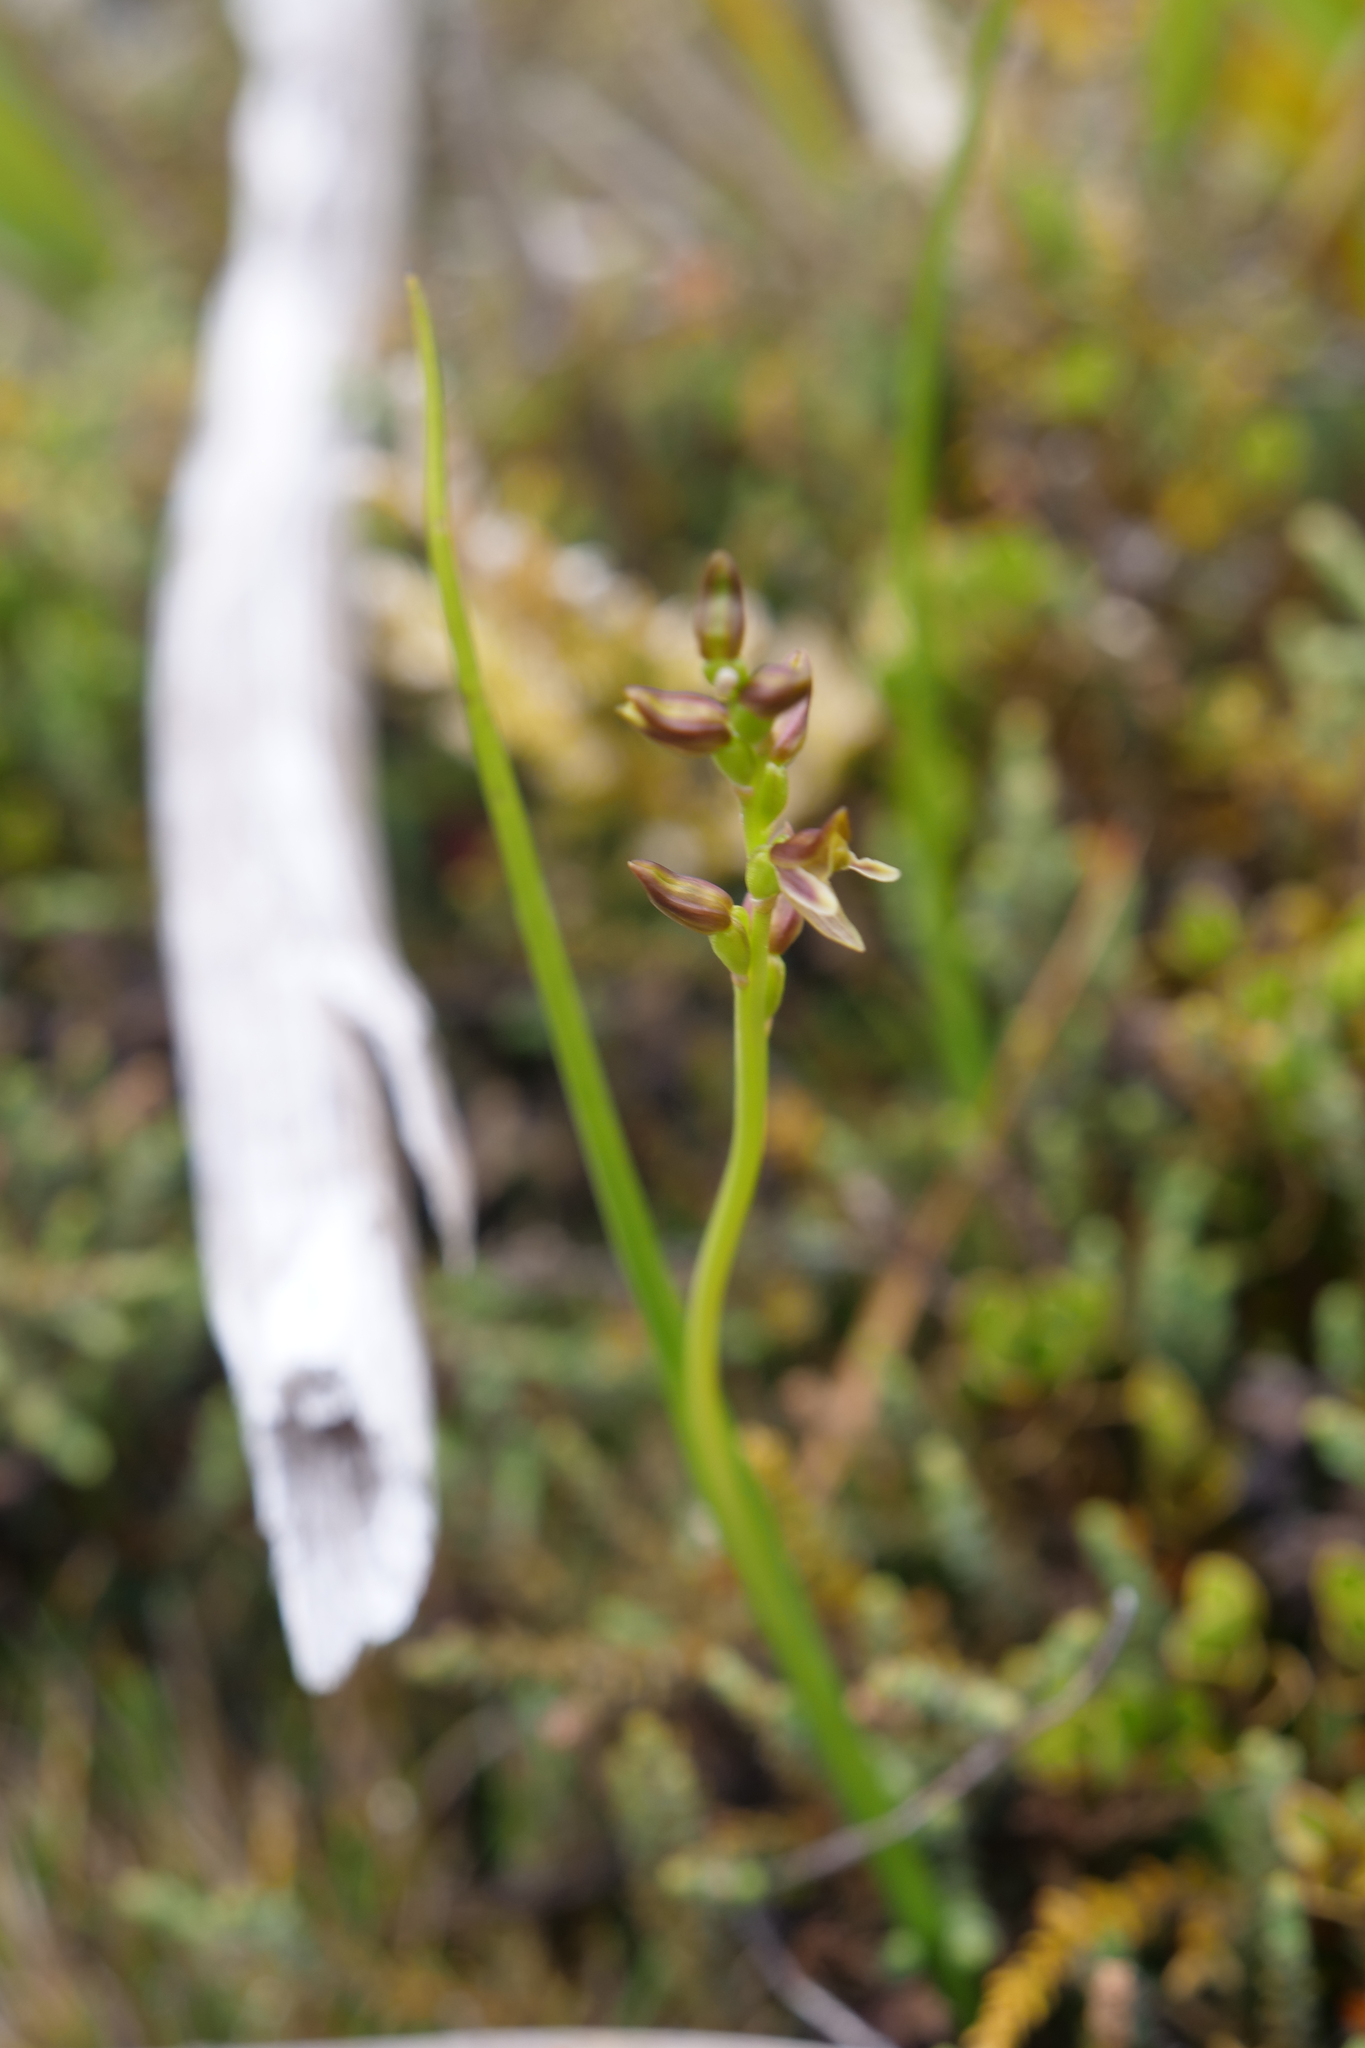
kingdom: Plantae
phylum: Tracheophyta
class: Liliopsida
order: Asparagales
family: Orchidaceae
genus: Prasophyllum
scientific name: Prasophyllum colensoi
